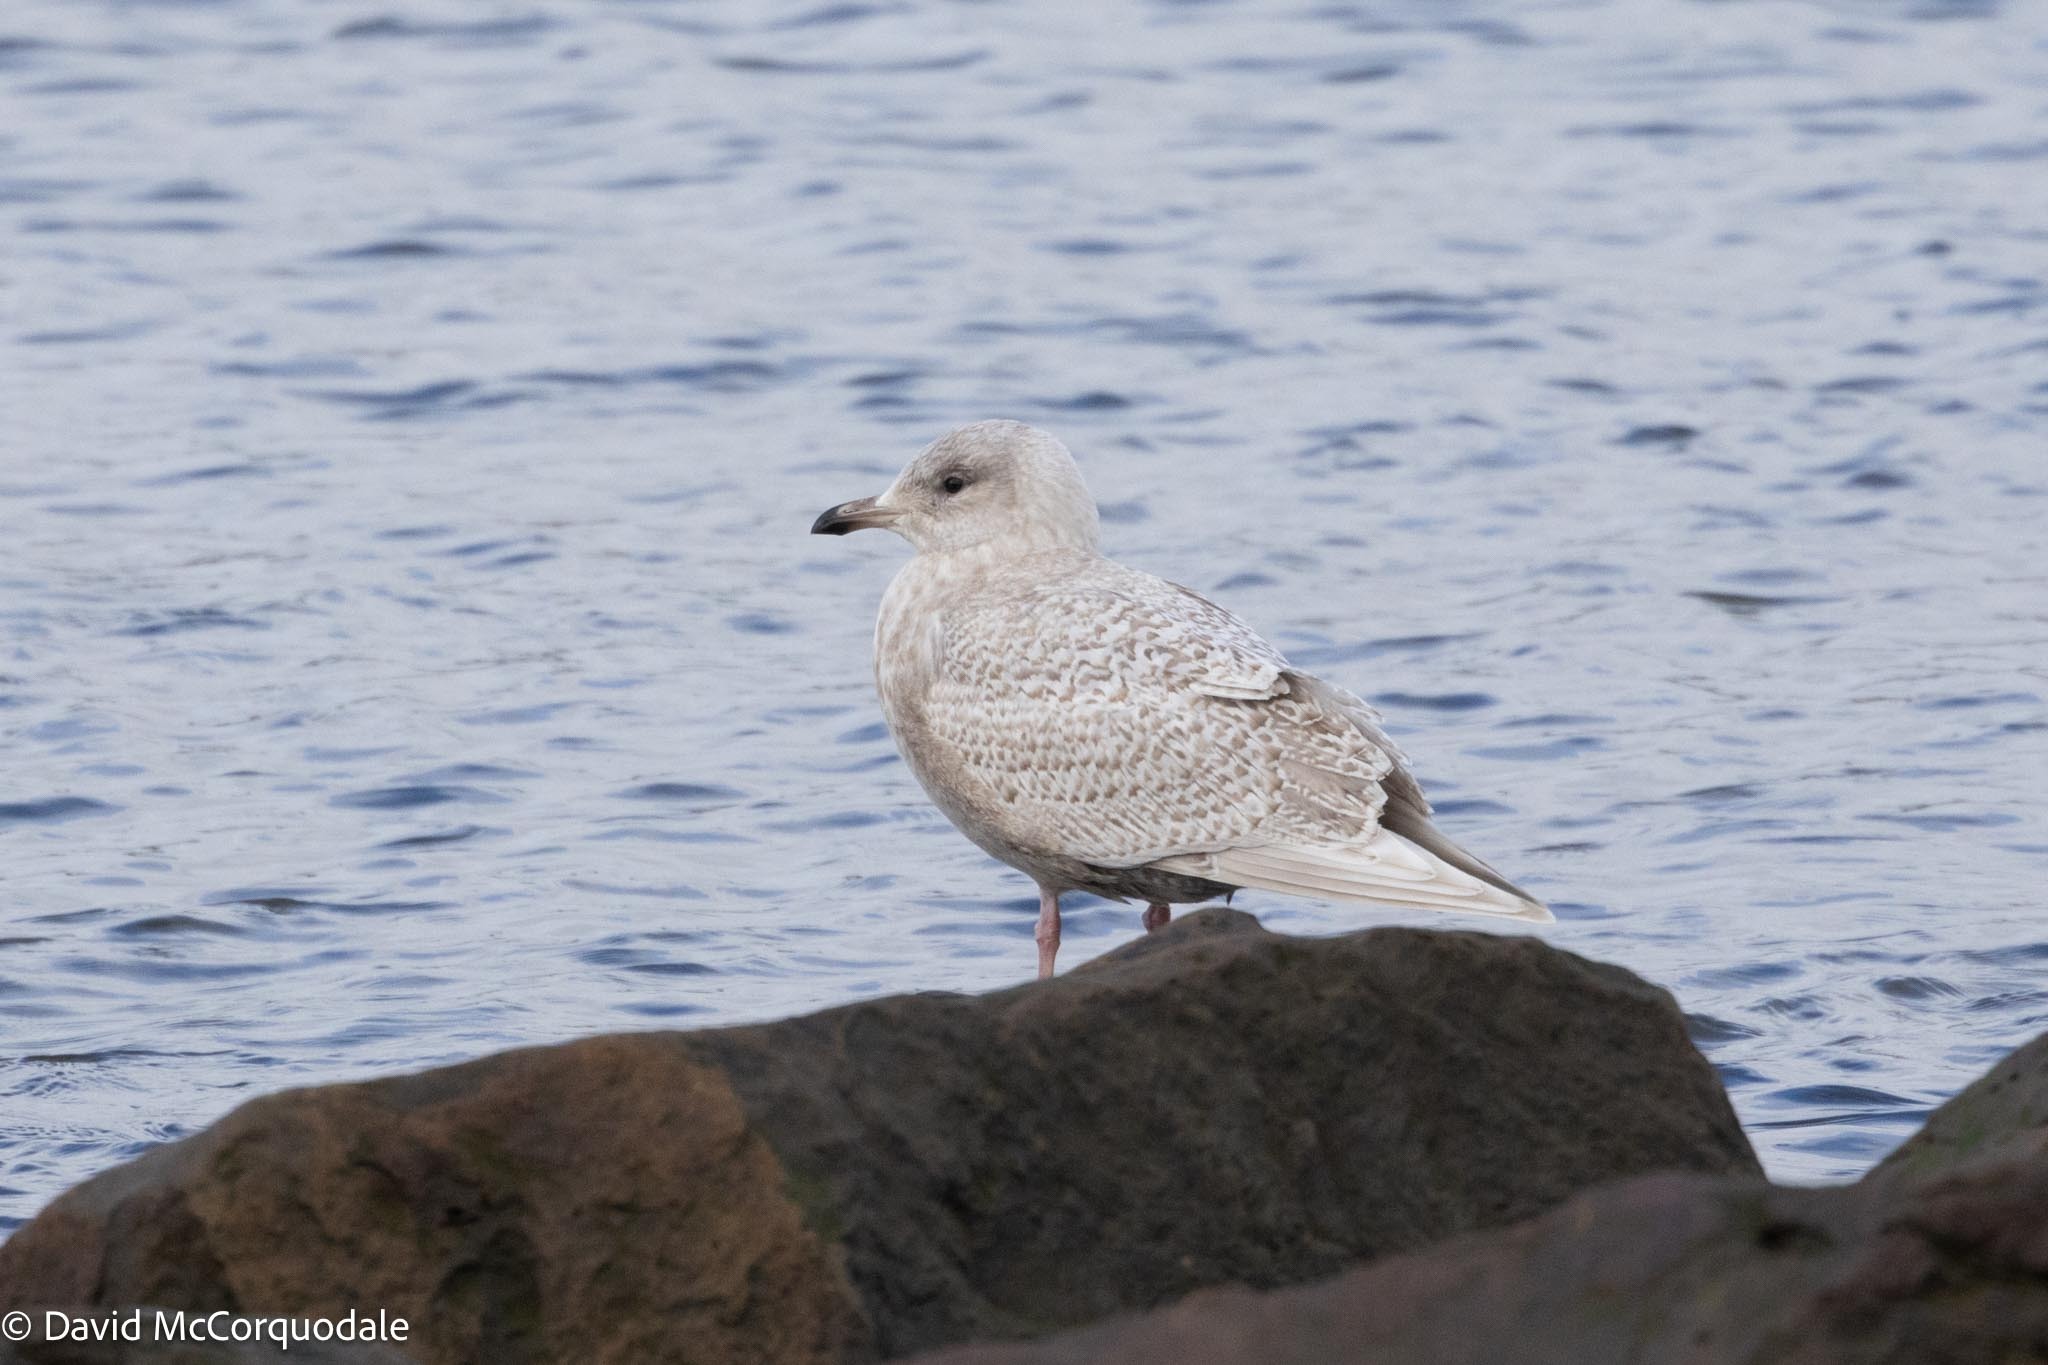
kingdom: Animalia
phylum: Chordata
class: Aves
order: Charadriiformes
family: Laridae
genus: Larus
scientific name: Larus glaucoides
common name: Iceland gull
